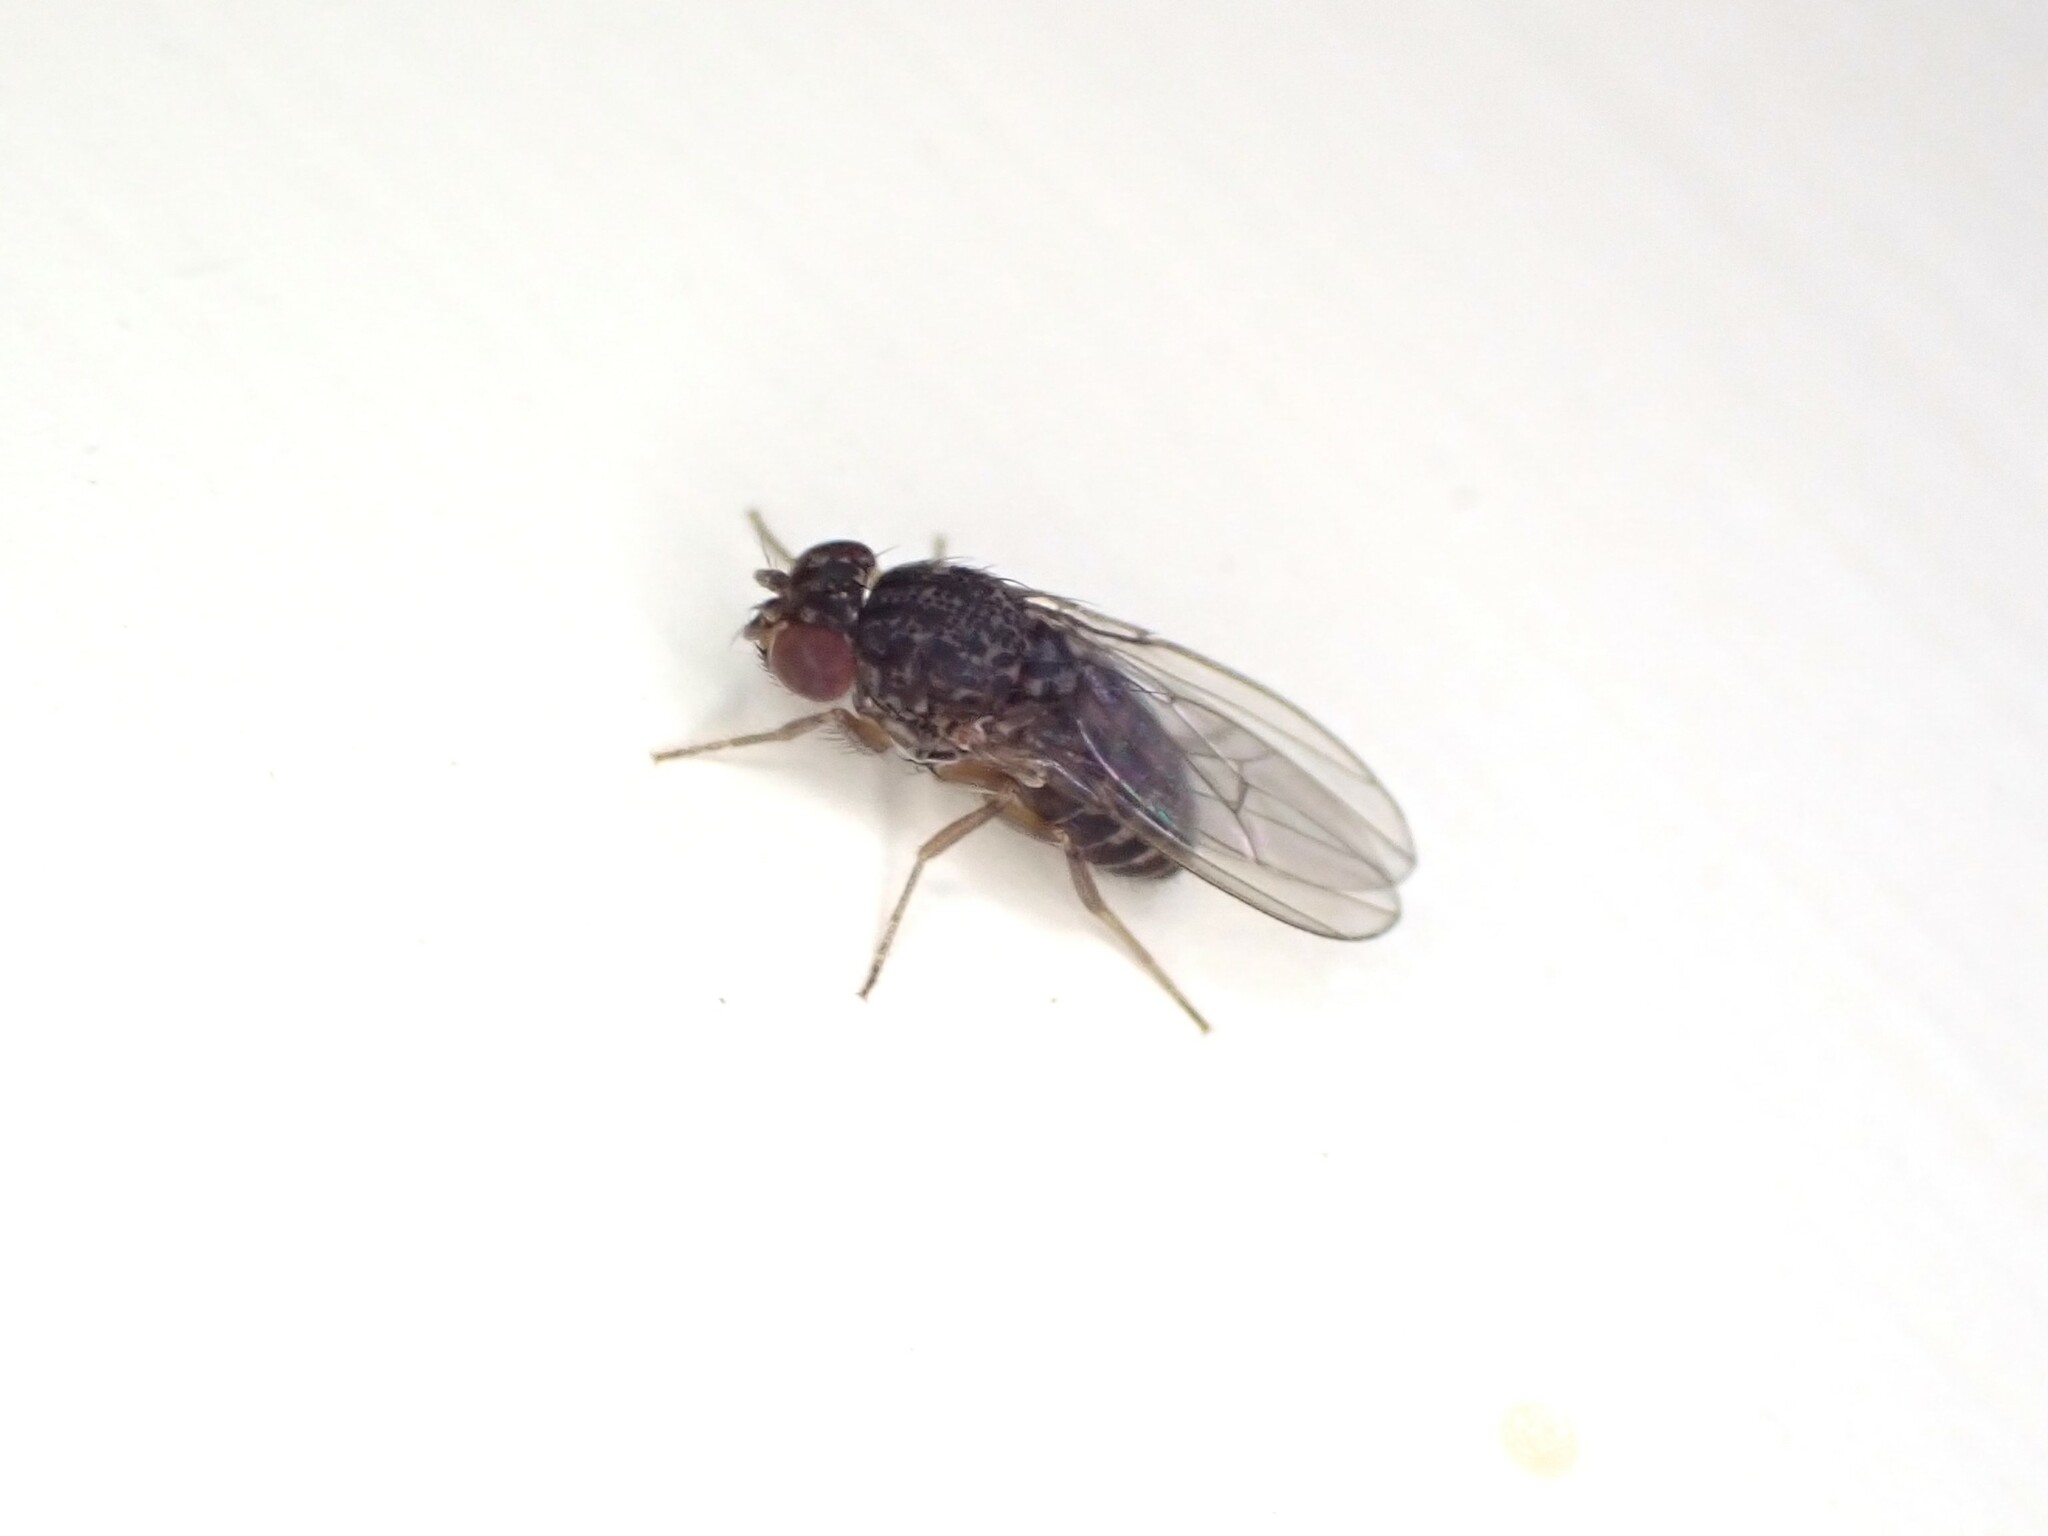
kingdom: Animalia
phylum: Arthropoda
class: Insecta
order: Diptera
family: Drosophilidae
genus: Drosophila
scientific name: Drosophila hydei
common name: Pomace fly
